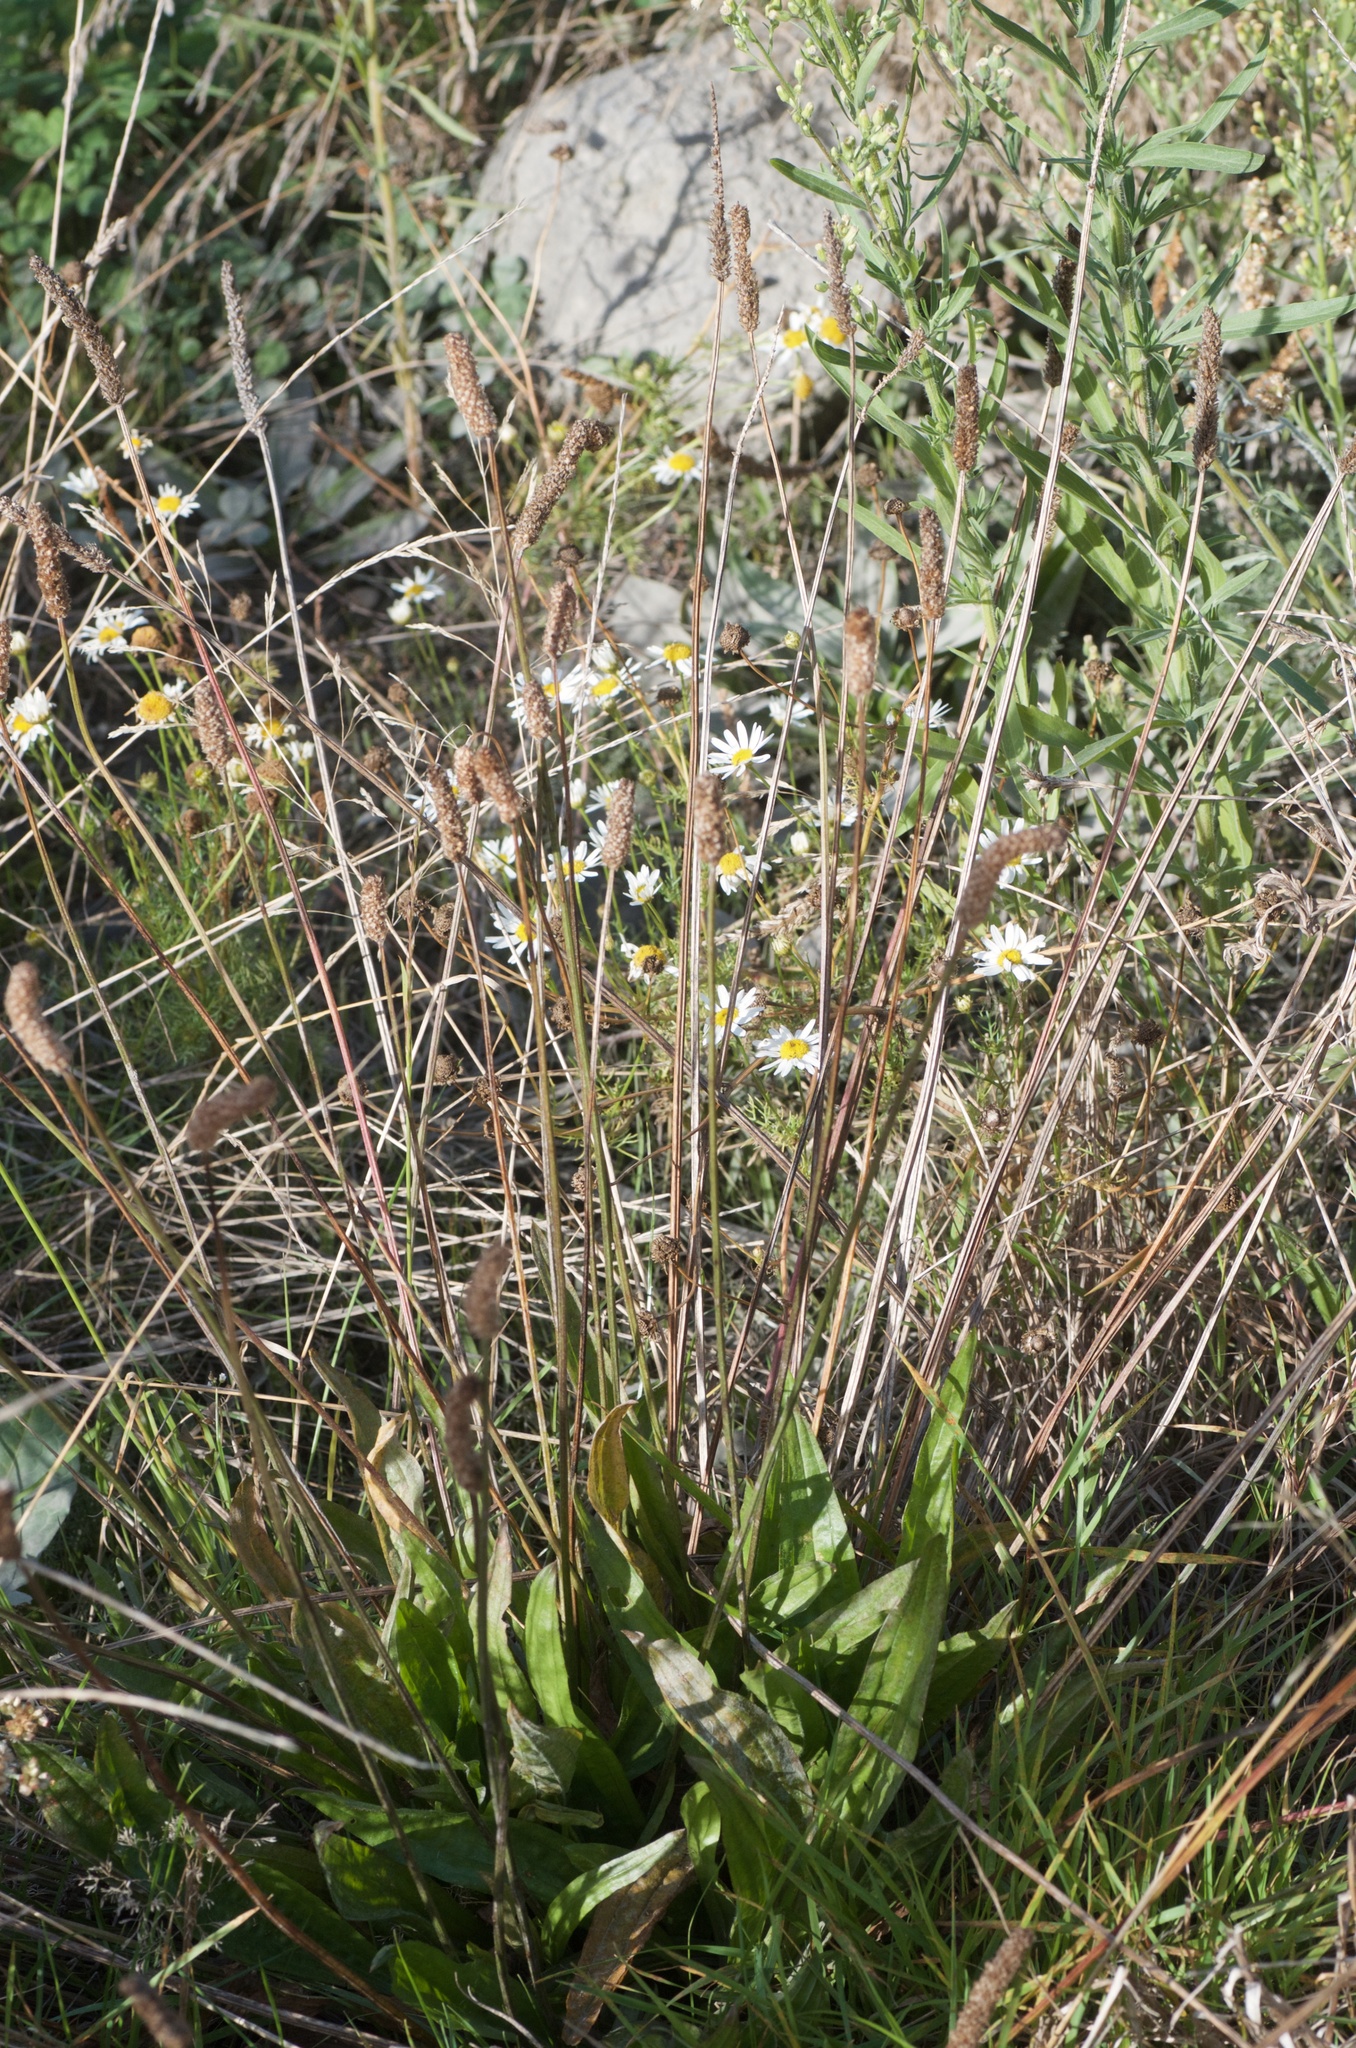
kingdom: Plantae
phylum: Tracheophyta
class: Magnoliopsida
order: Lamiales
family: Plantaginaceae
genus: Plantago
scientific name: Plantago lanceolata
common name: Ribwort plantain
